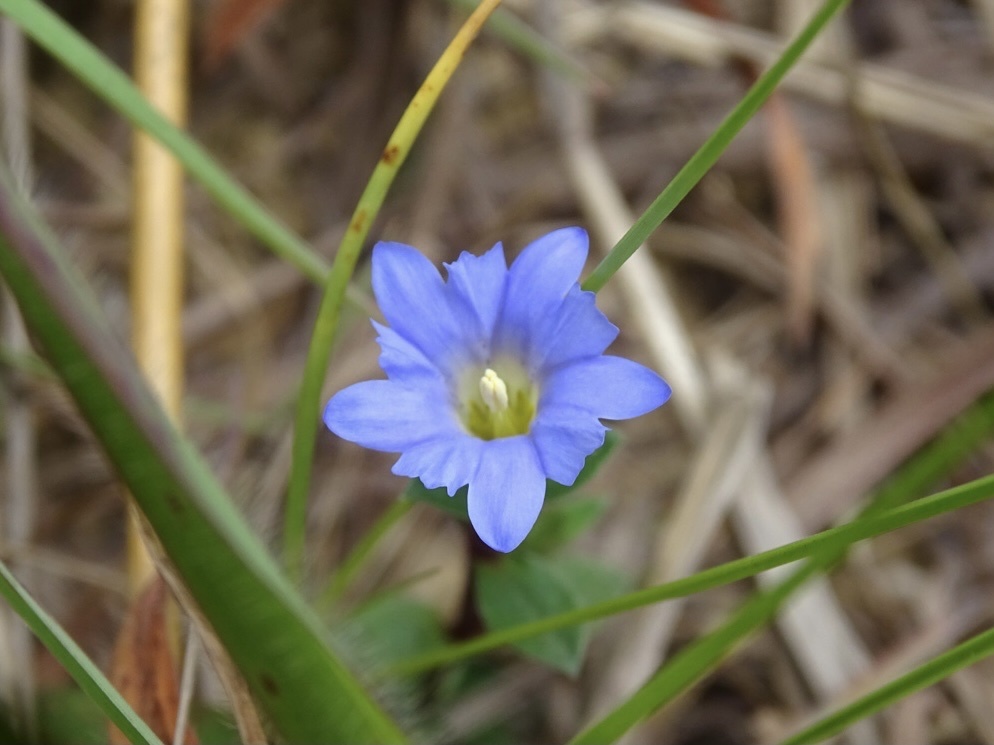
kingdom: Plantae
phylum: Tracheophyta
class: Magnoliopsida
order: Gentianales
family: Gentianaceae
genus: Gentiana
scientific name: Gentiana loureiroi
